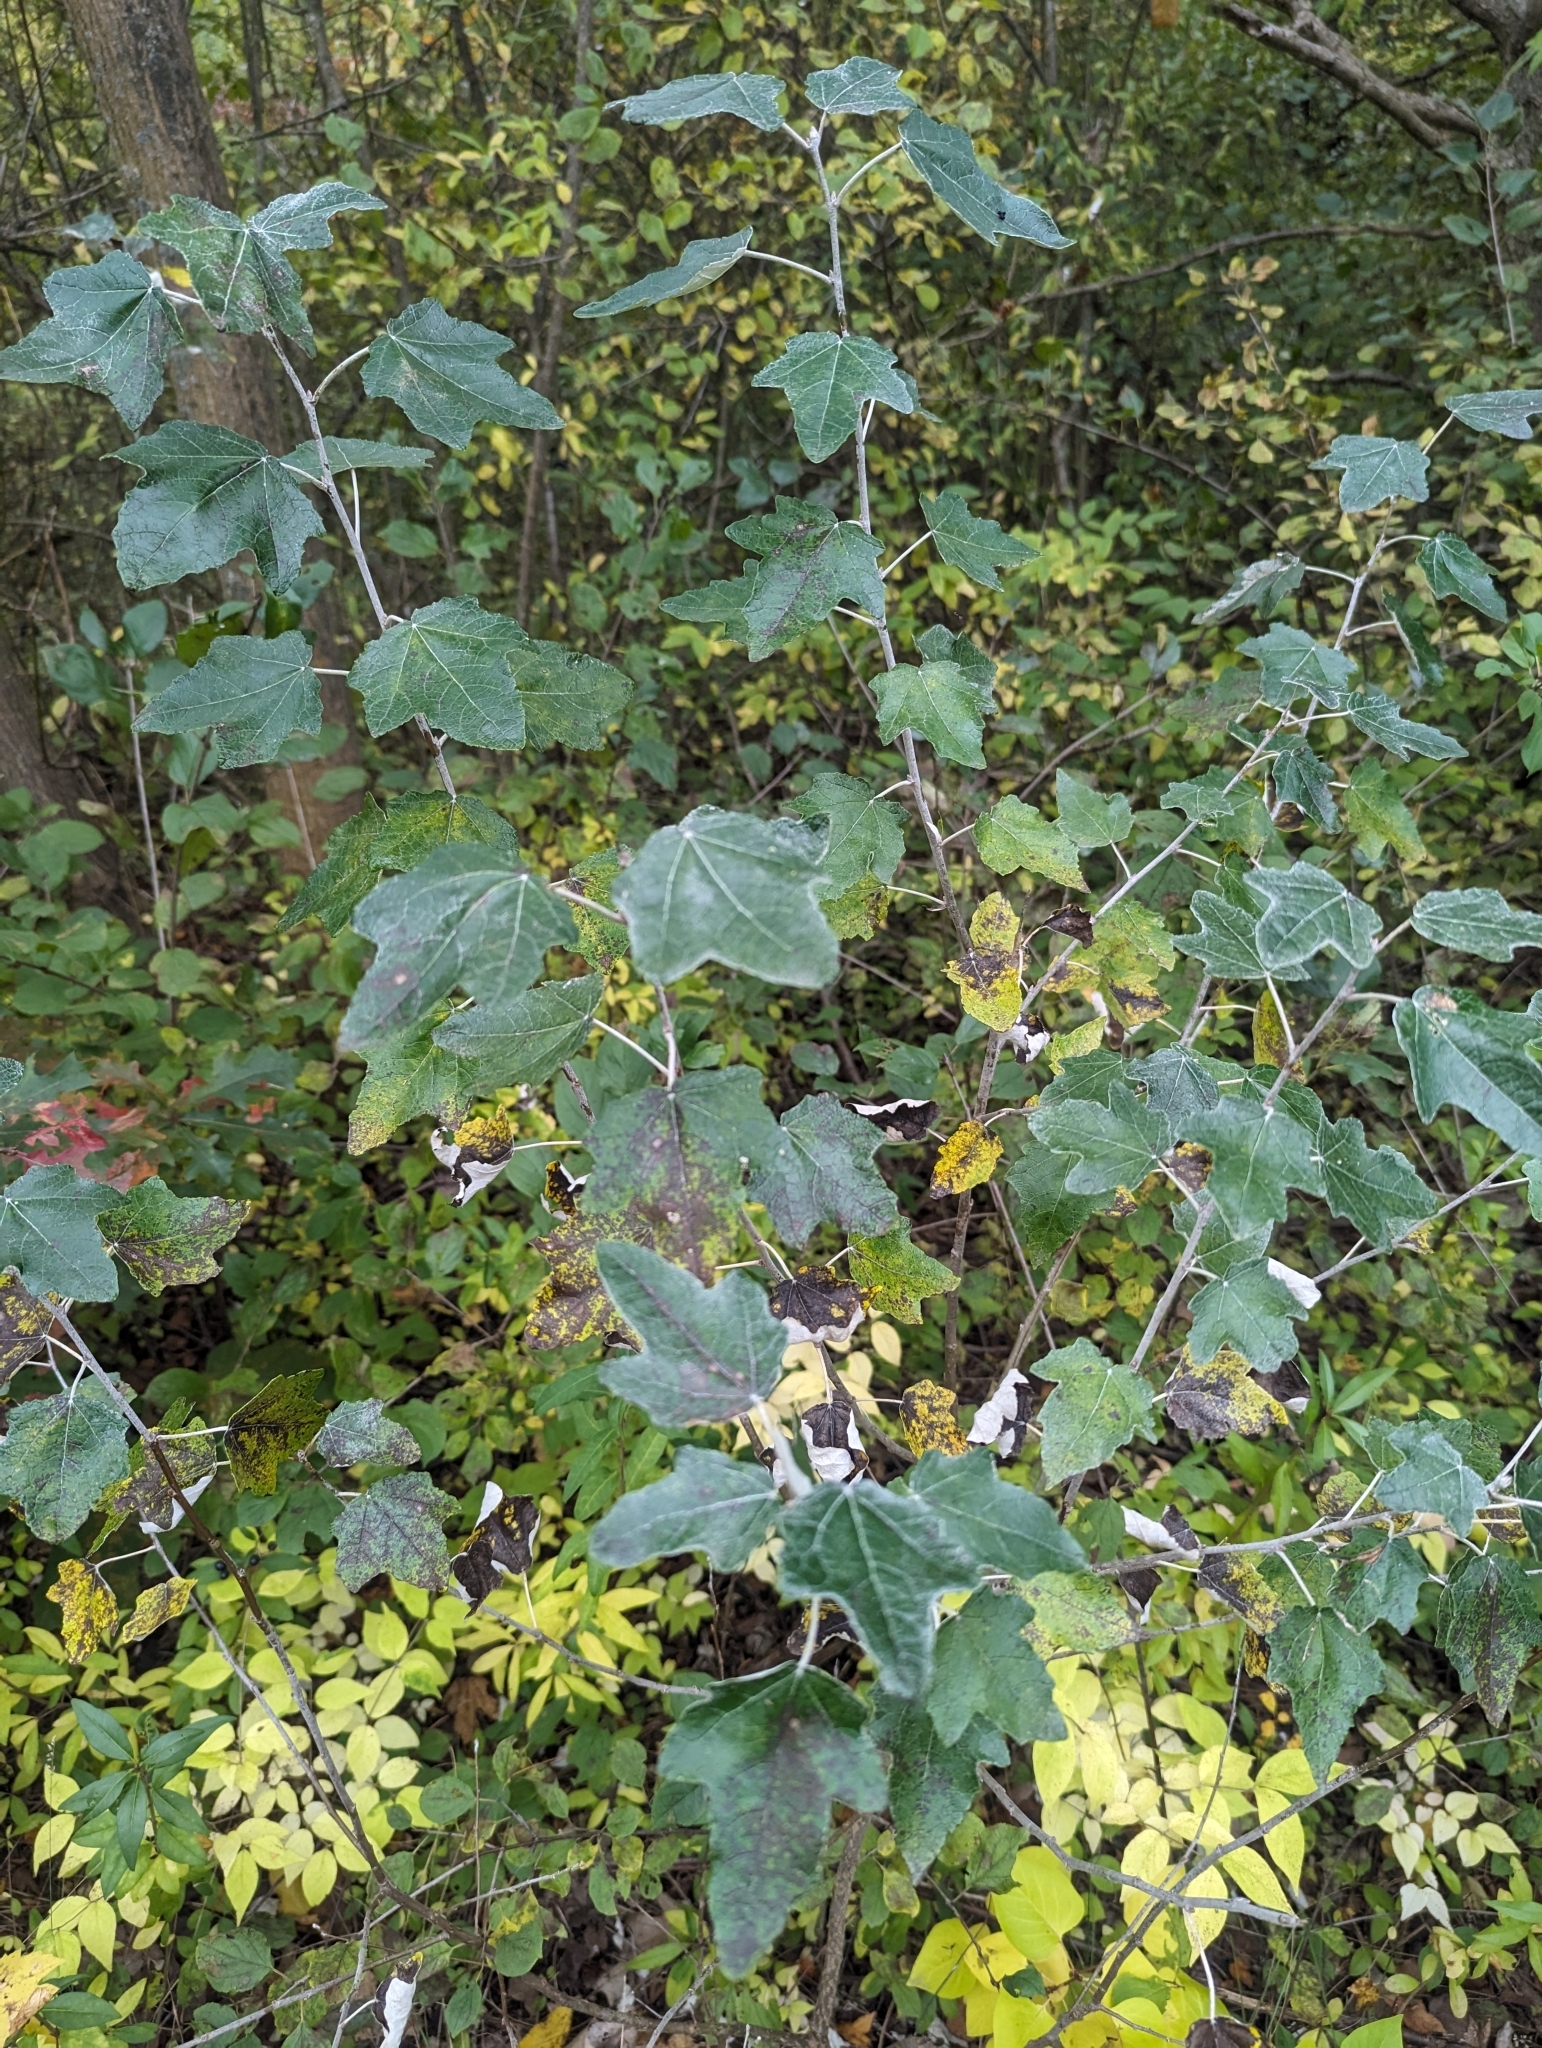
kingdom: Plantae
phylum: Tracheophyta
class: Magnoliopsida
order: Malpighiales
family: Salicaceae
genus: Populus
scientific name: Populus alba
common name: White poplar
